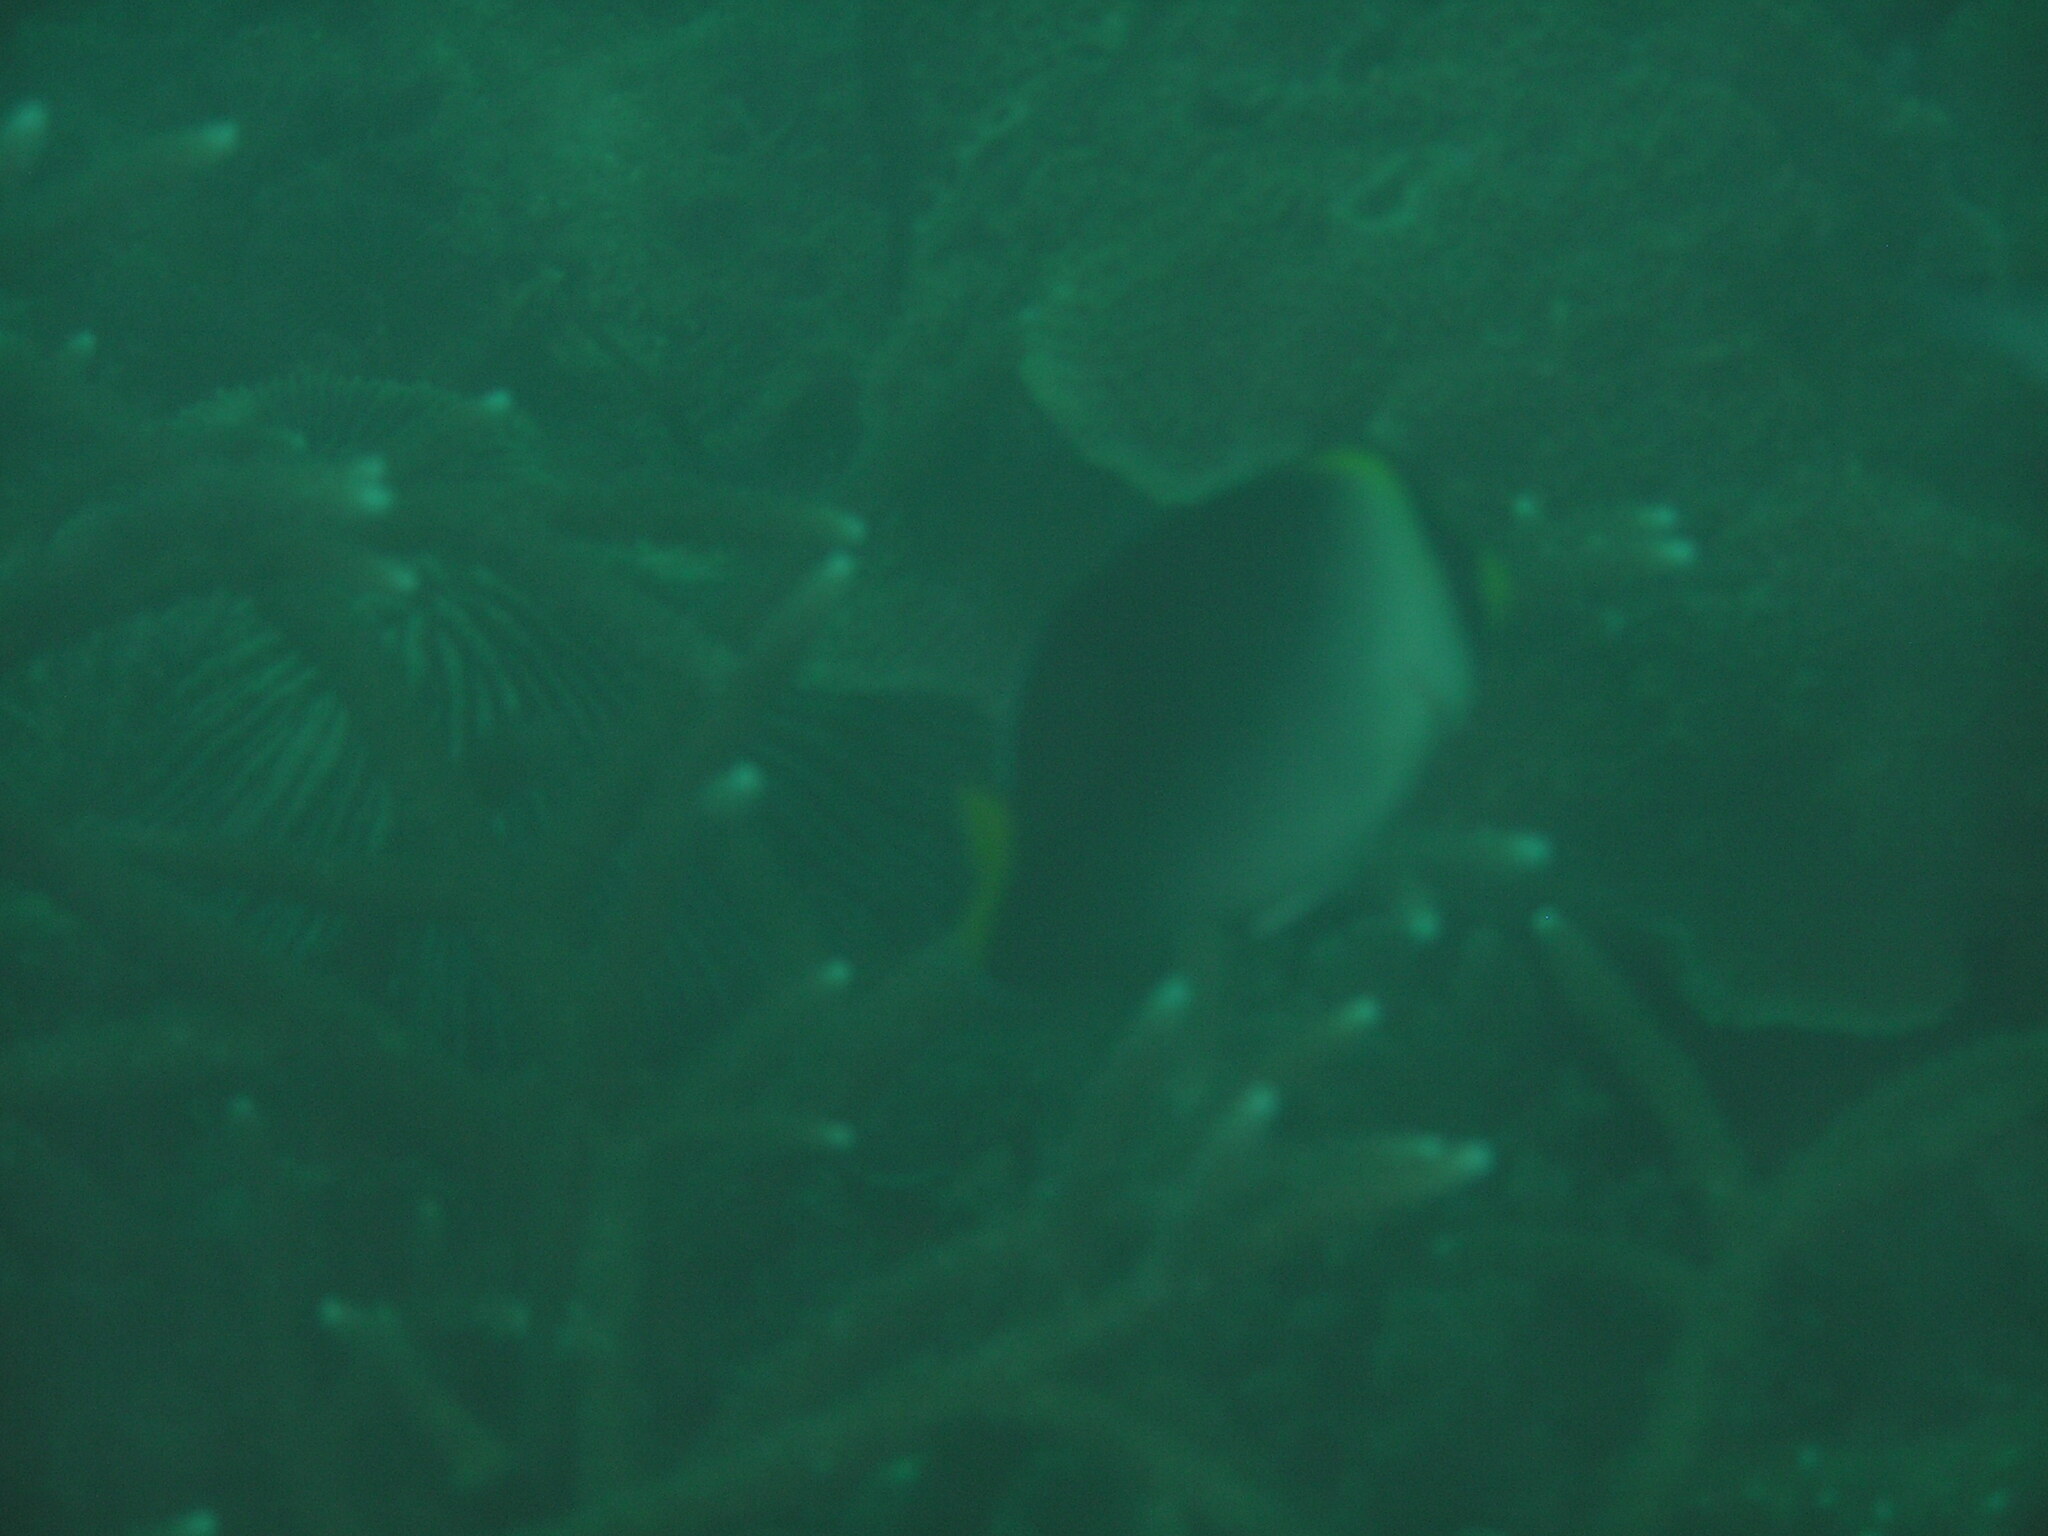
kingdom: Animalia
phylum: Chordata
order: Perciformes
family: Pomacanthidae
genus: Chaetodontoplus
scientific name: Chaetodontoplus mesoleucus
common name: Vermiculated angelfish
